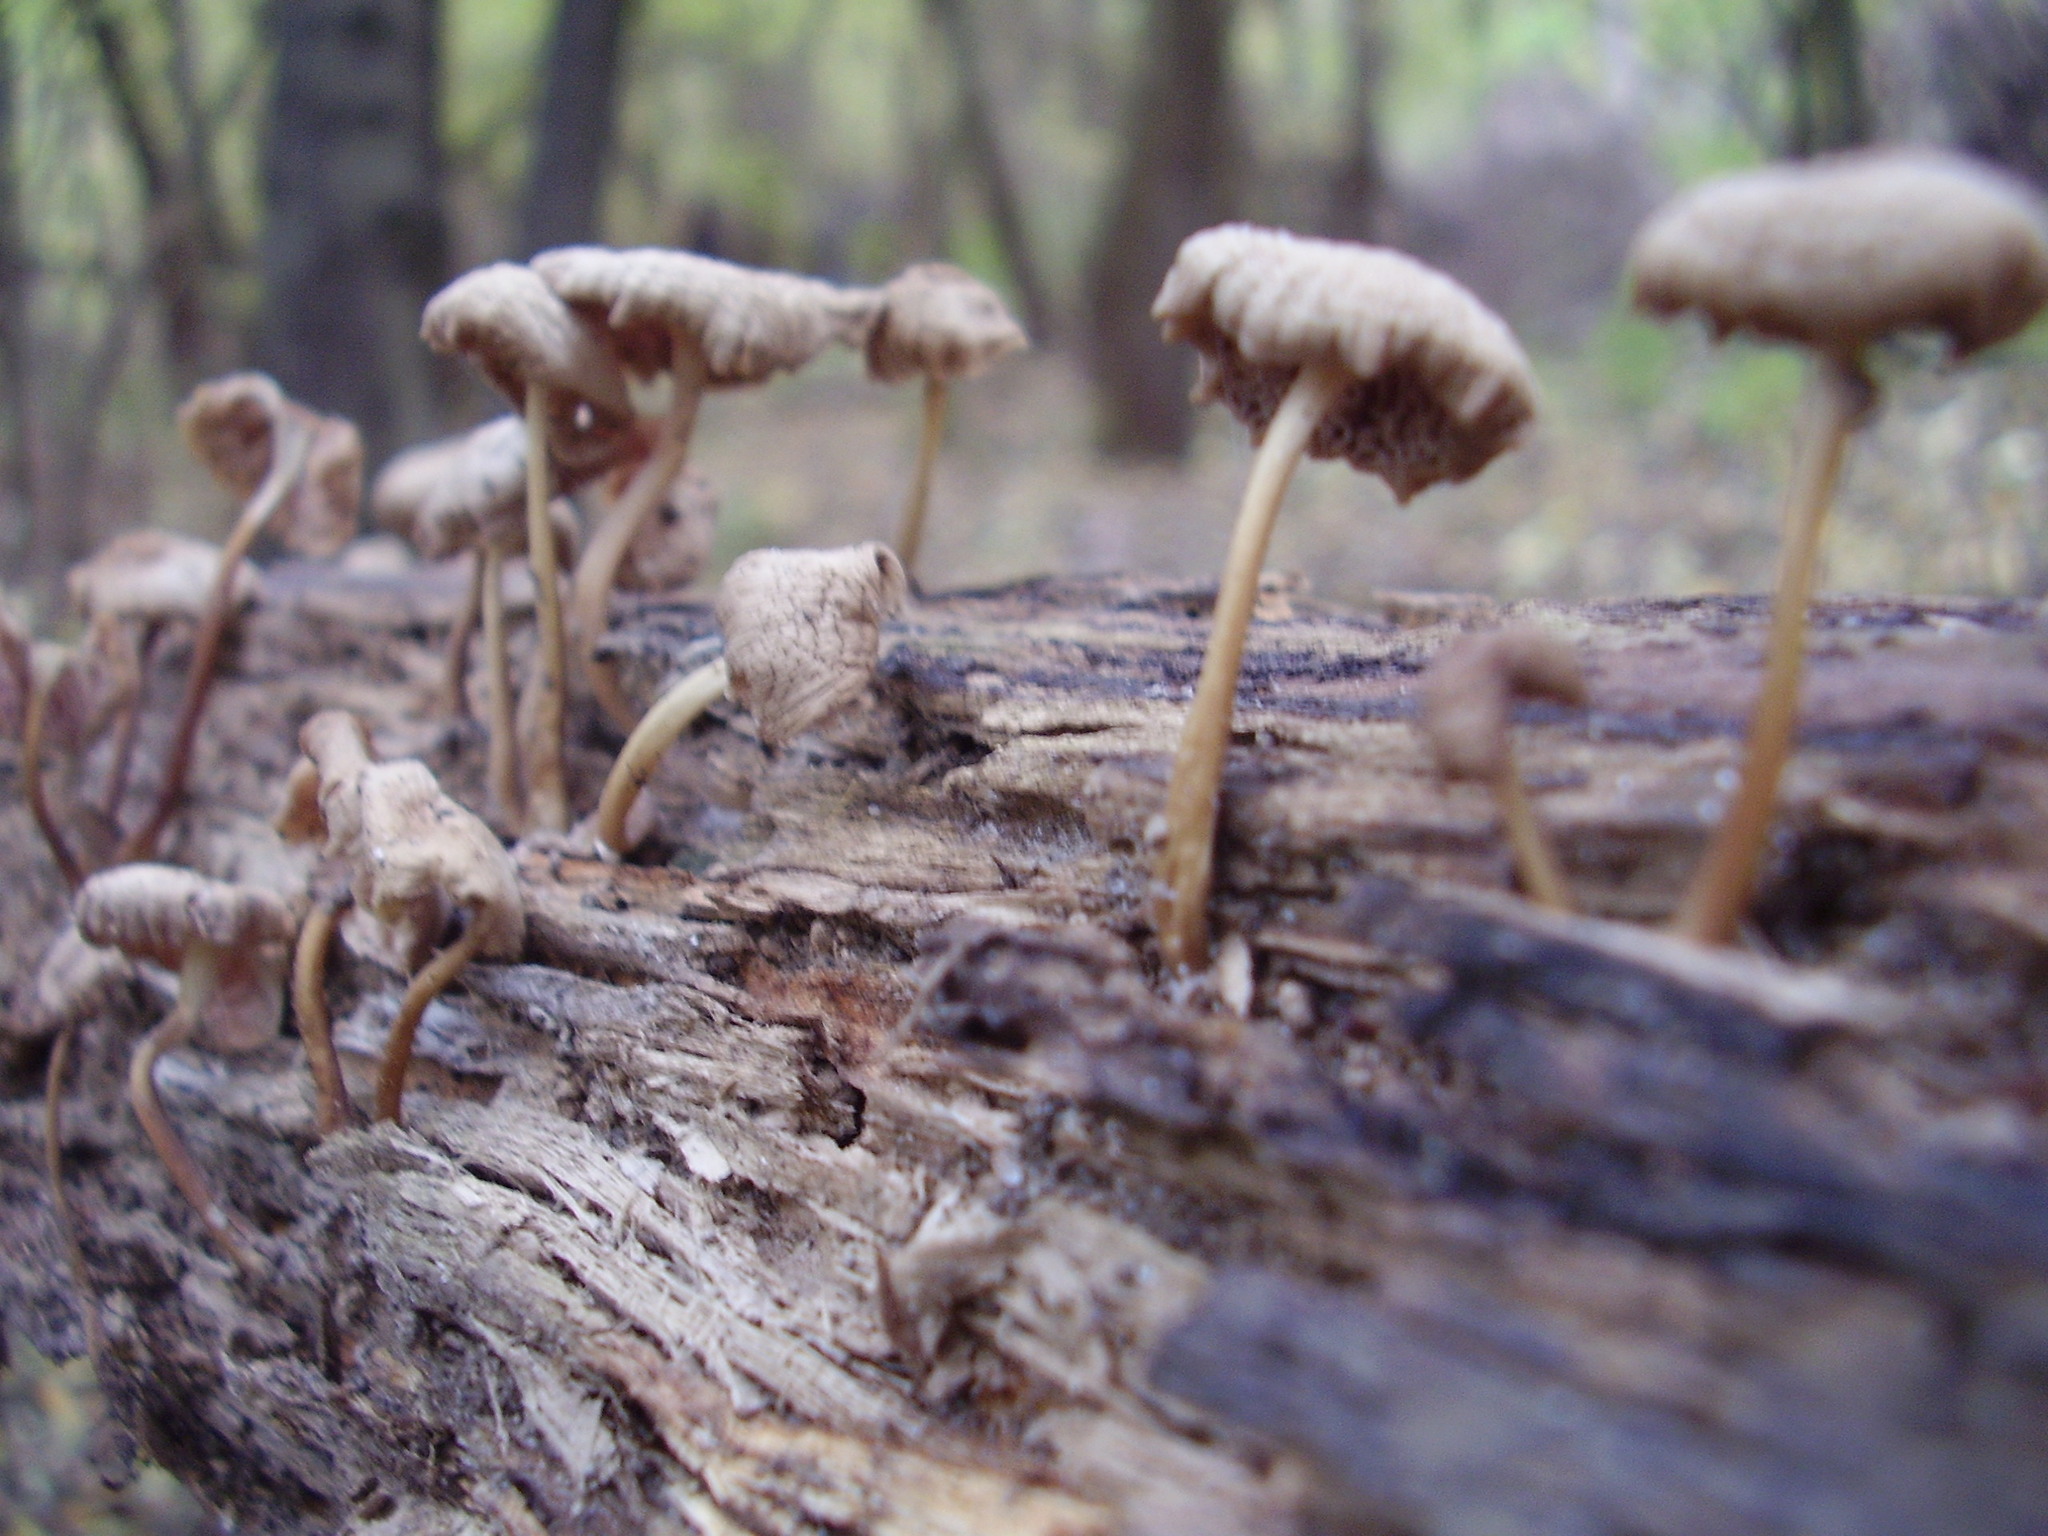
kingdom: Fungi
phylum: Basidiomycota
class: Agaricomycetes
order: Agaricales
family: Mycenaceae
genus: Mycena
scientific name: Mycena galericulata
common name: Bonnet mycena
